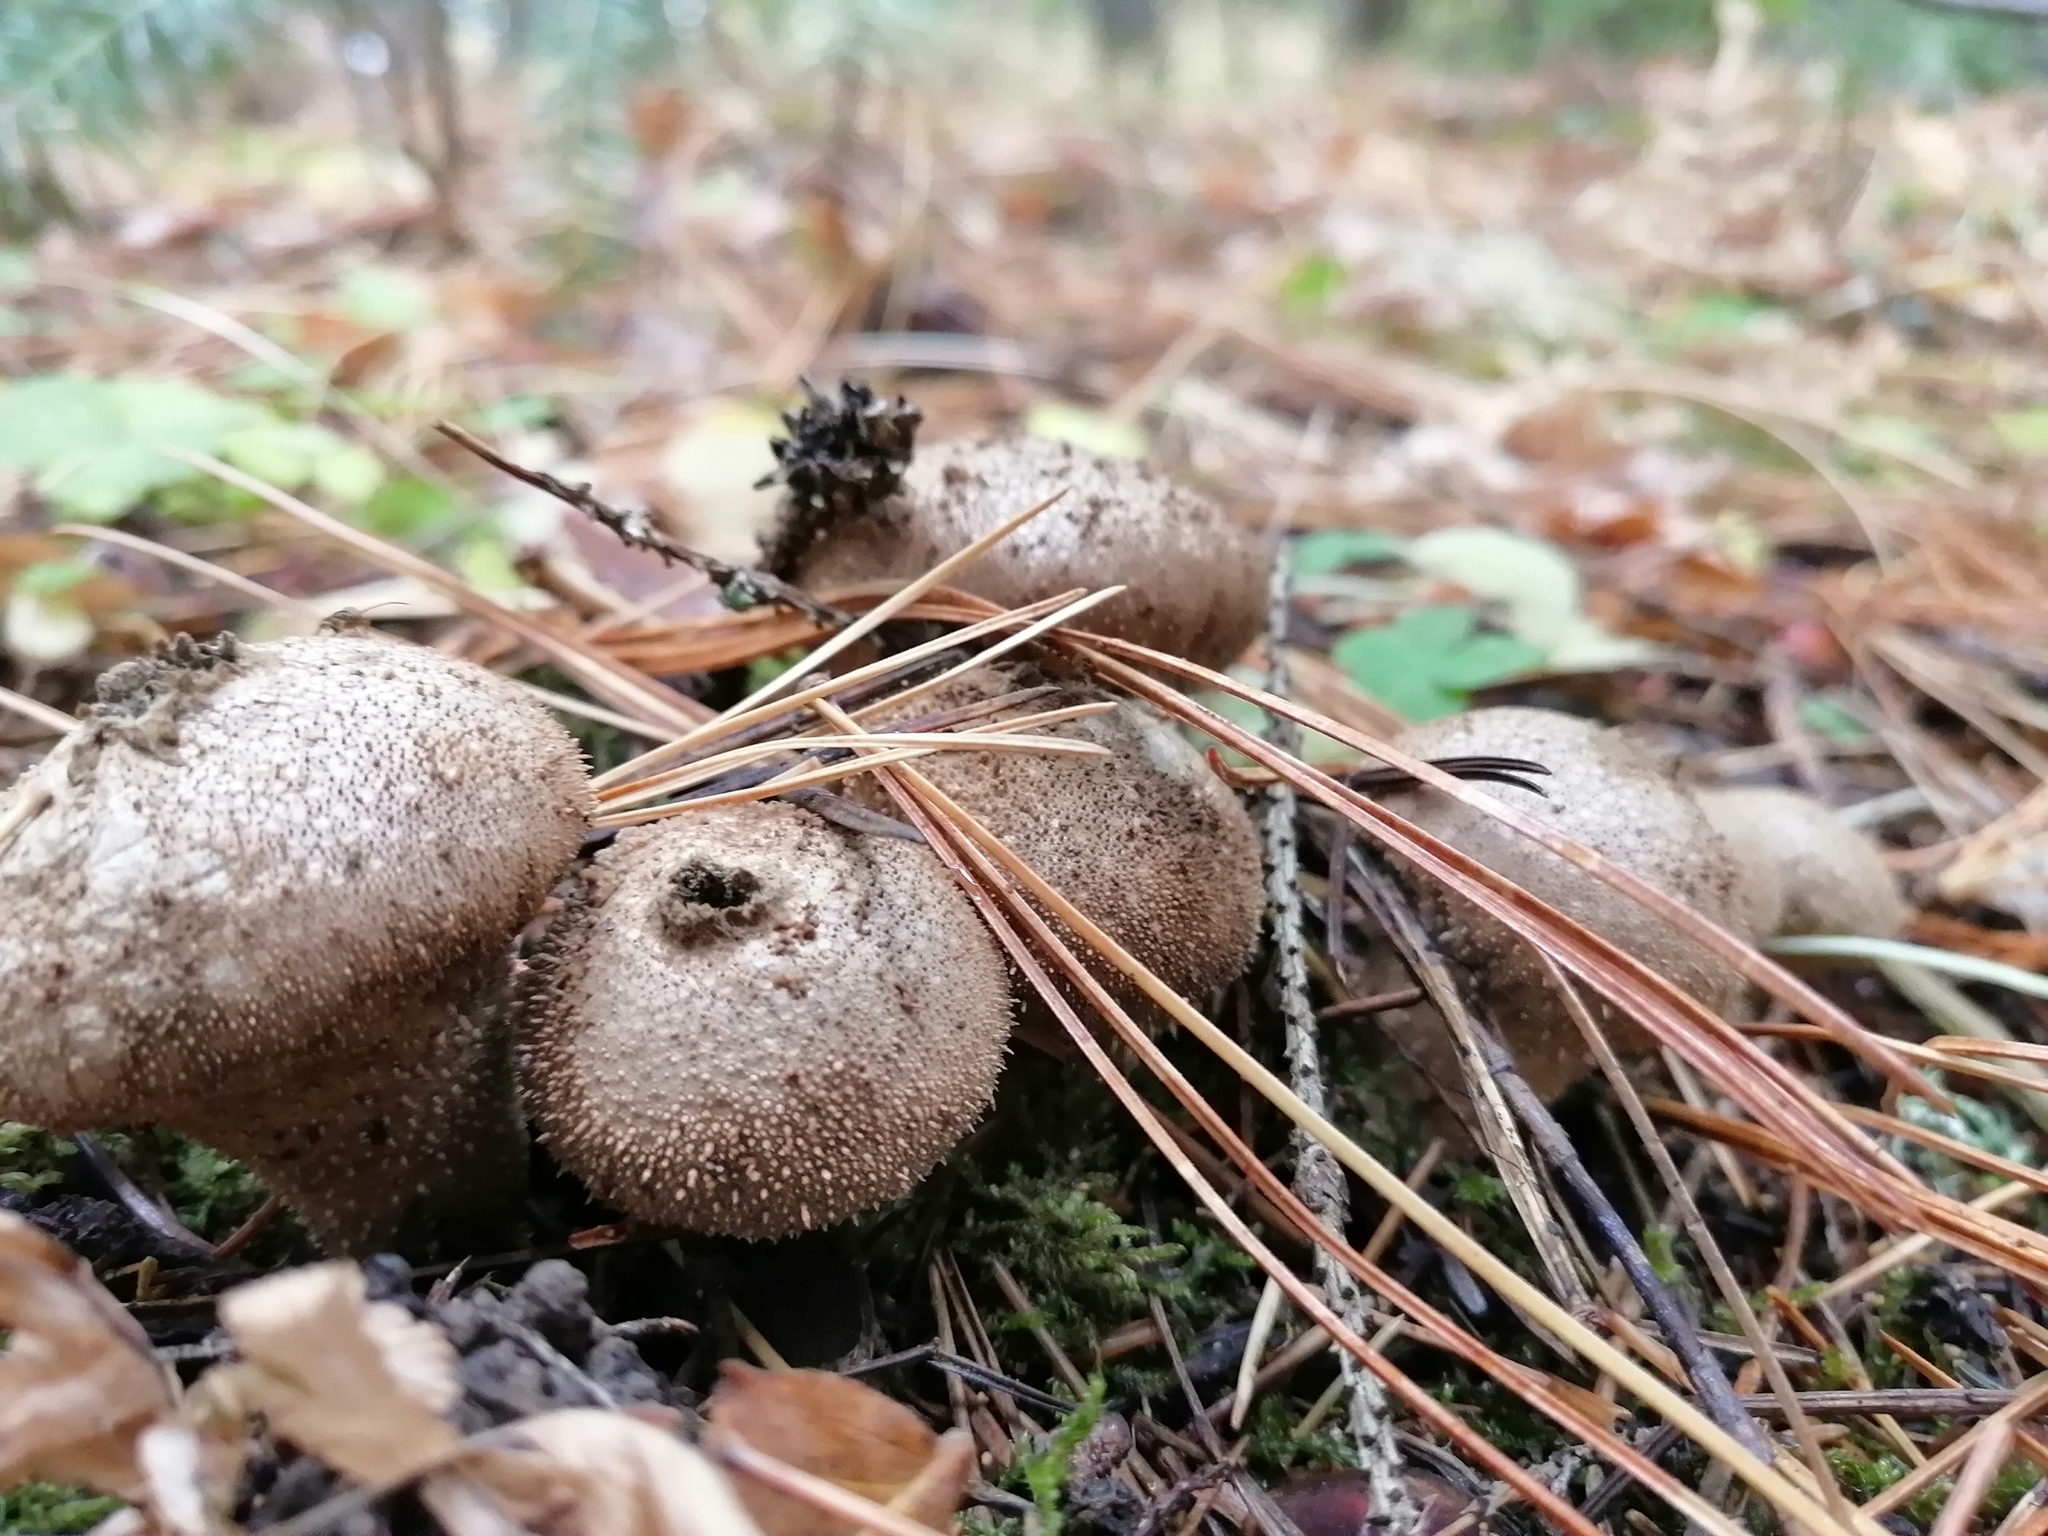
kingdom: Fungi
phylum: Basidiomycota
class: Agaricomycetes
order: Agaricales
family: Lycoperdaceae
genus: Lycoperdon
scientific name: Lycoperdon perlatum
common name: Common puffball
